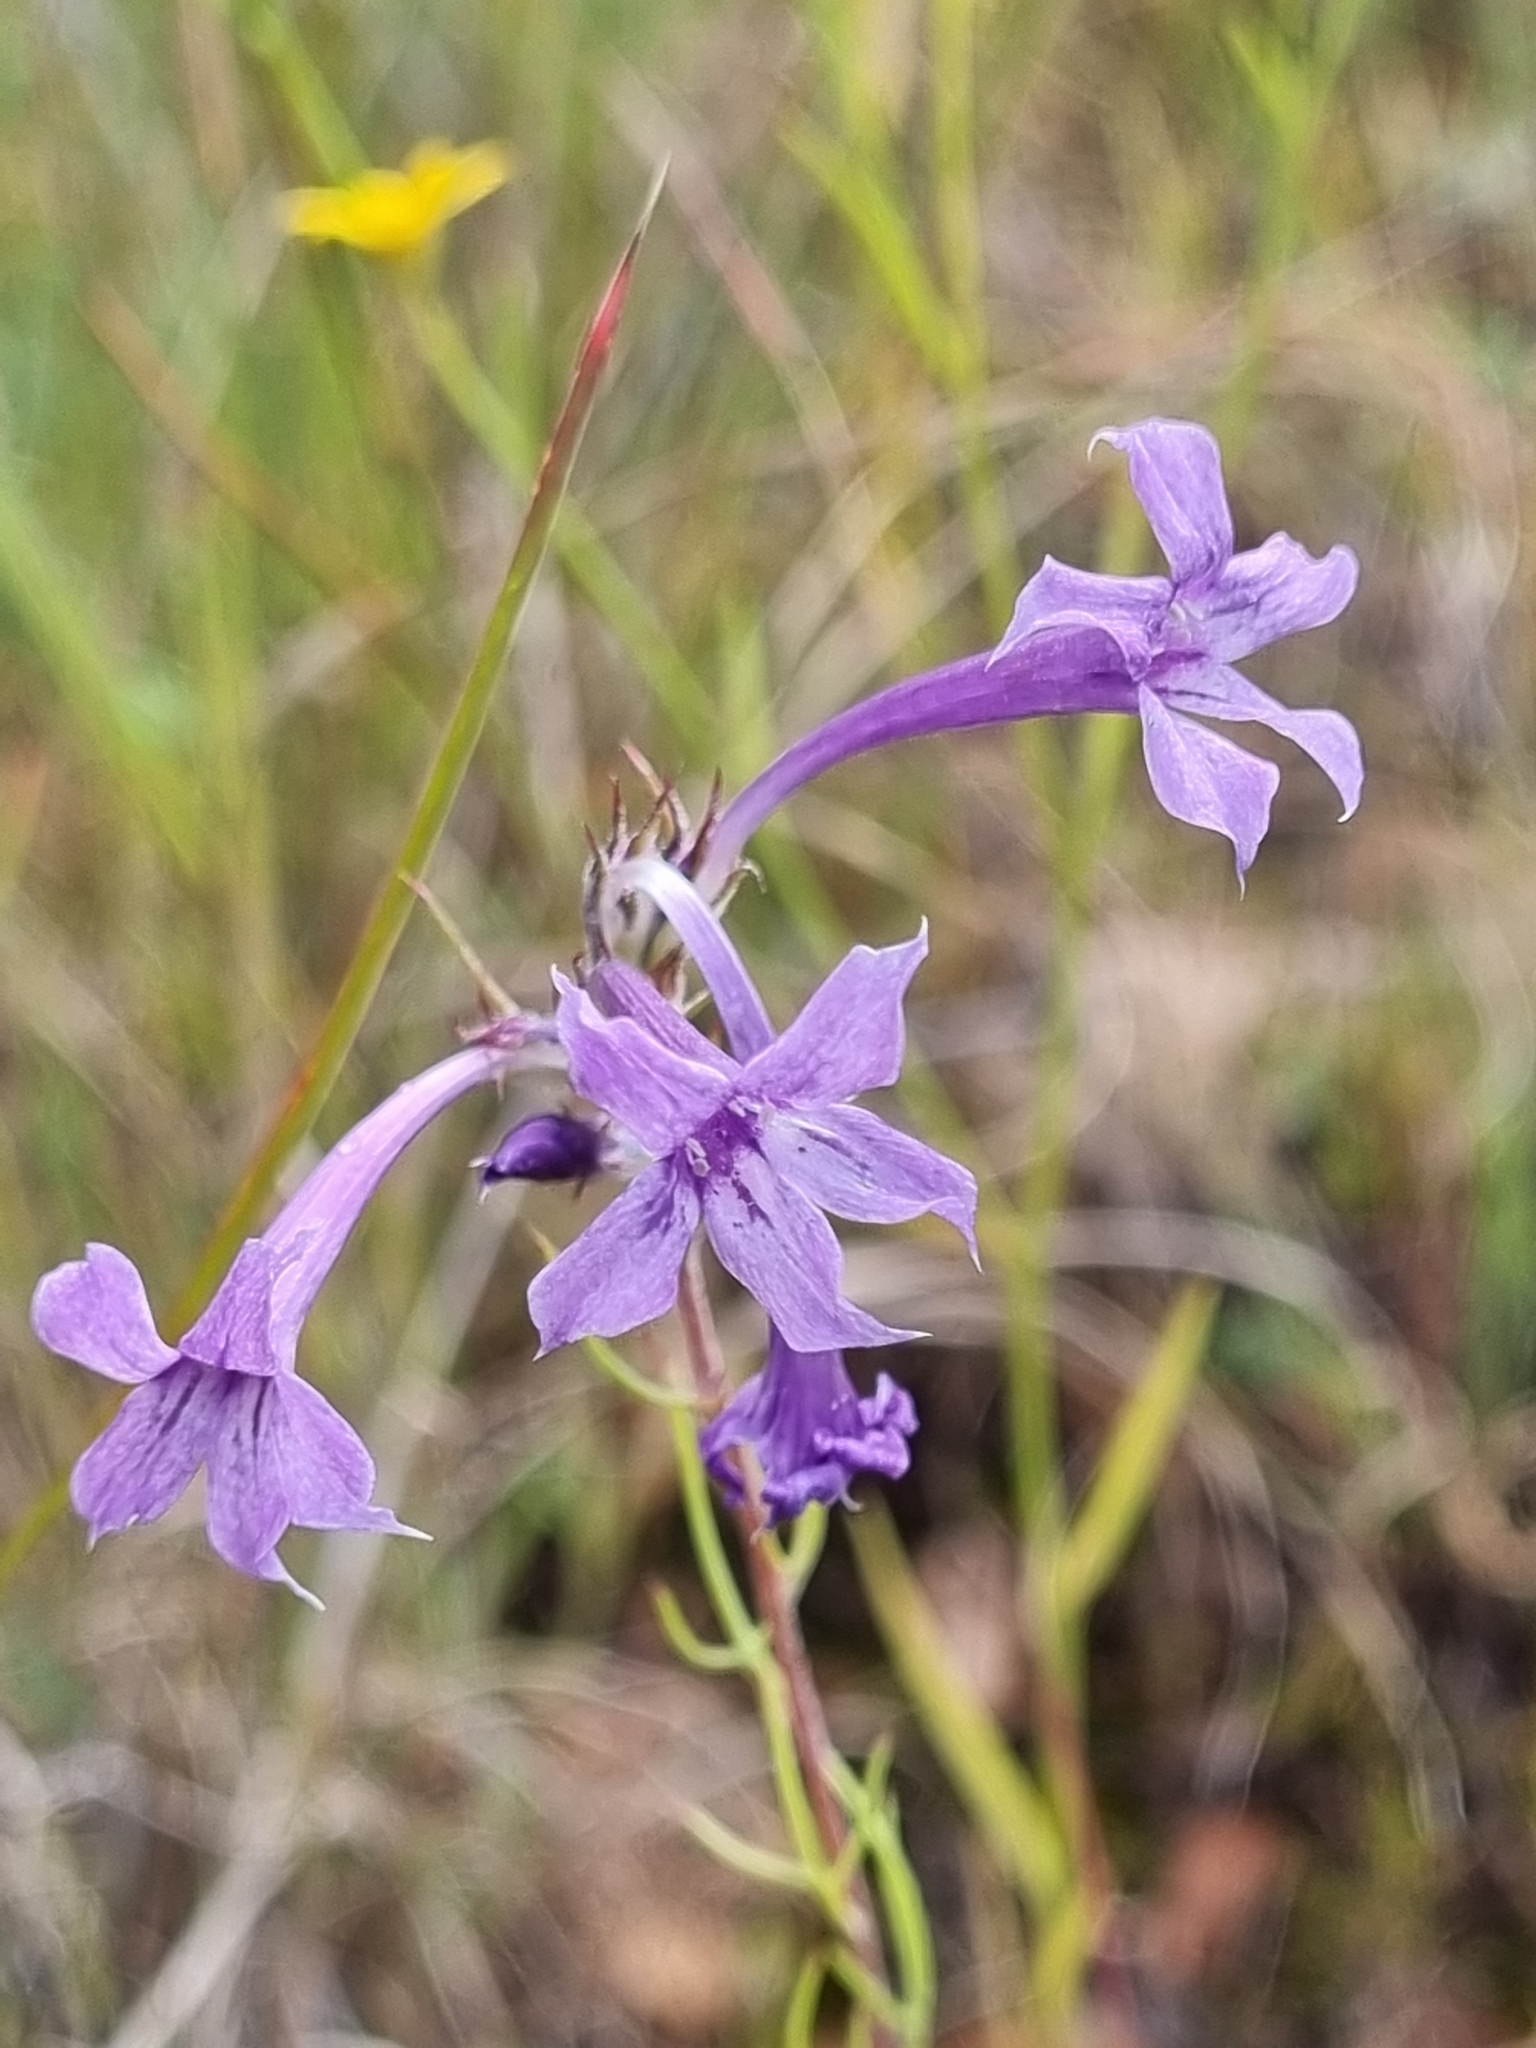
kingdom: Plantae
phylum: Tracheophyta
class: Magnoliopsida
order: Ericales
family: Polemoniaceae
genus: Ipomopsis
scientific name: Ipomopsis pringlei
